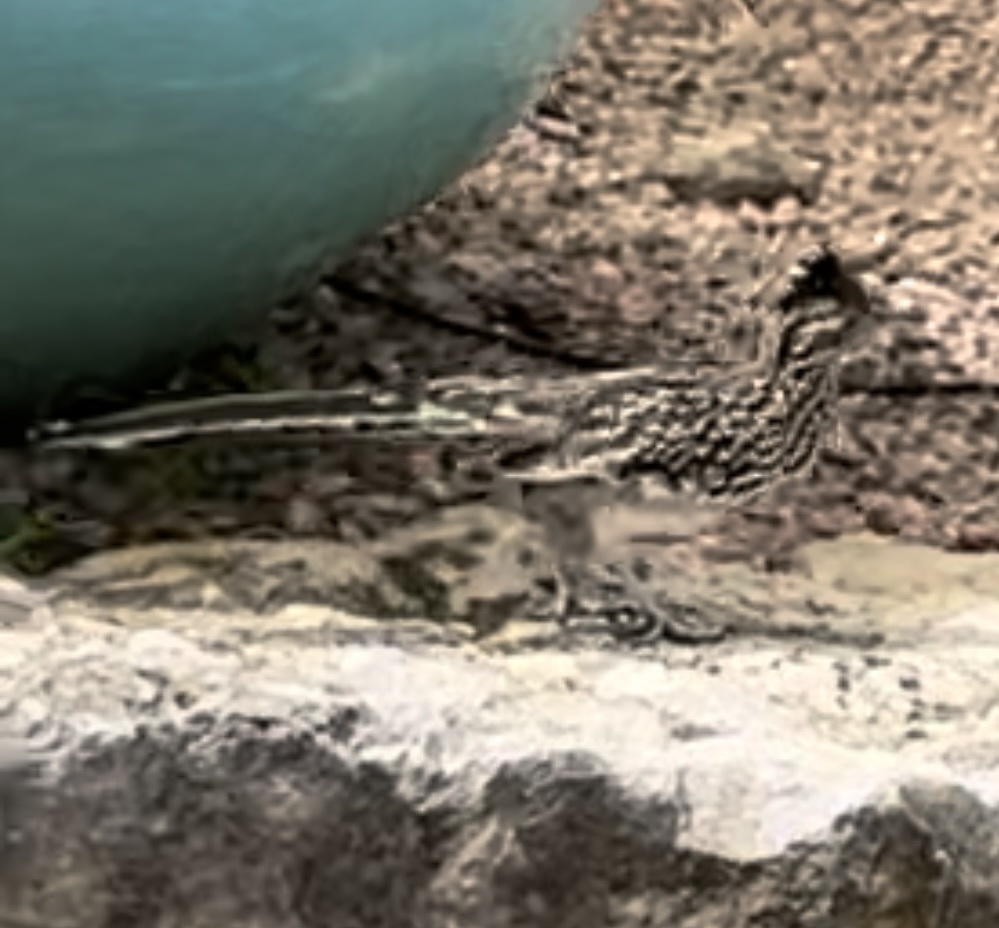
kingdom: Animalia
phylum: Chordata
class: Aves
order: Cuculiformes
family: Cuculidae
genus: Geococcyx
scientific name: Geococcyx californianus
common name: Greater roadrunner
